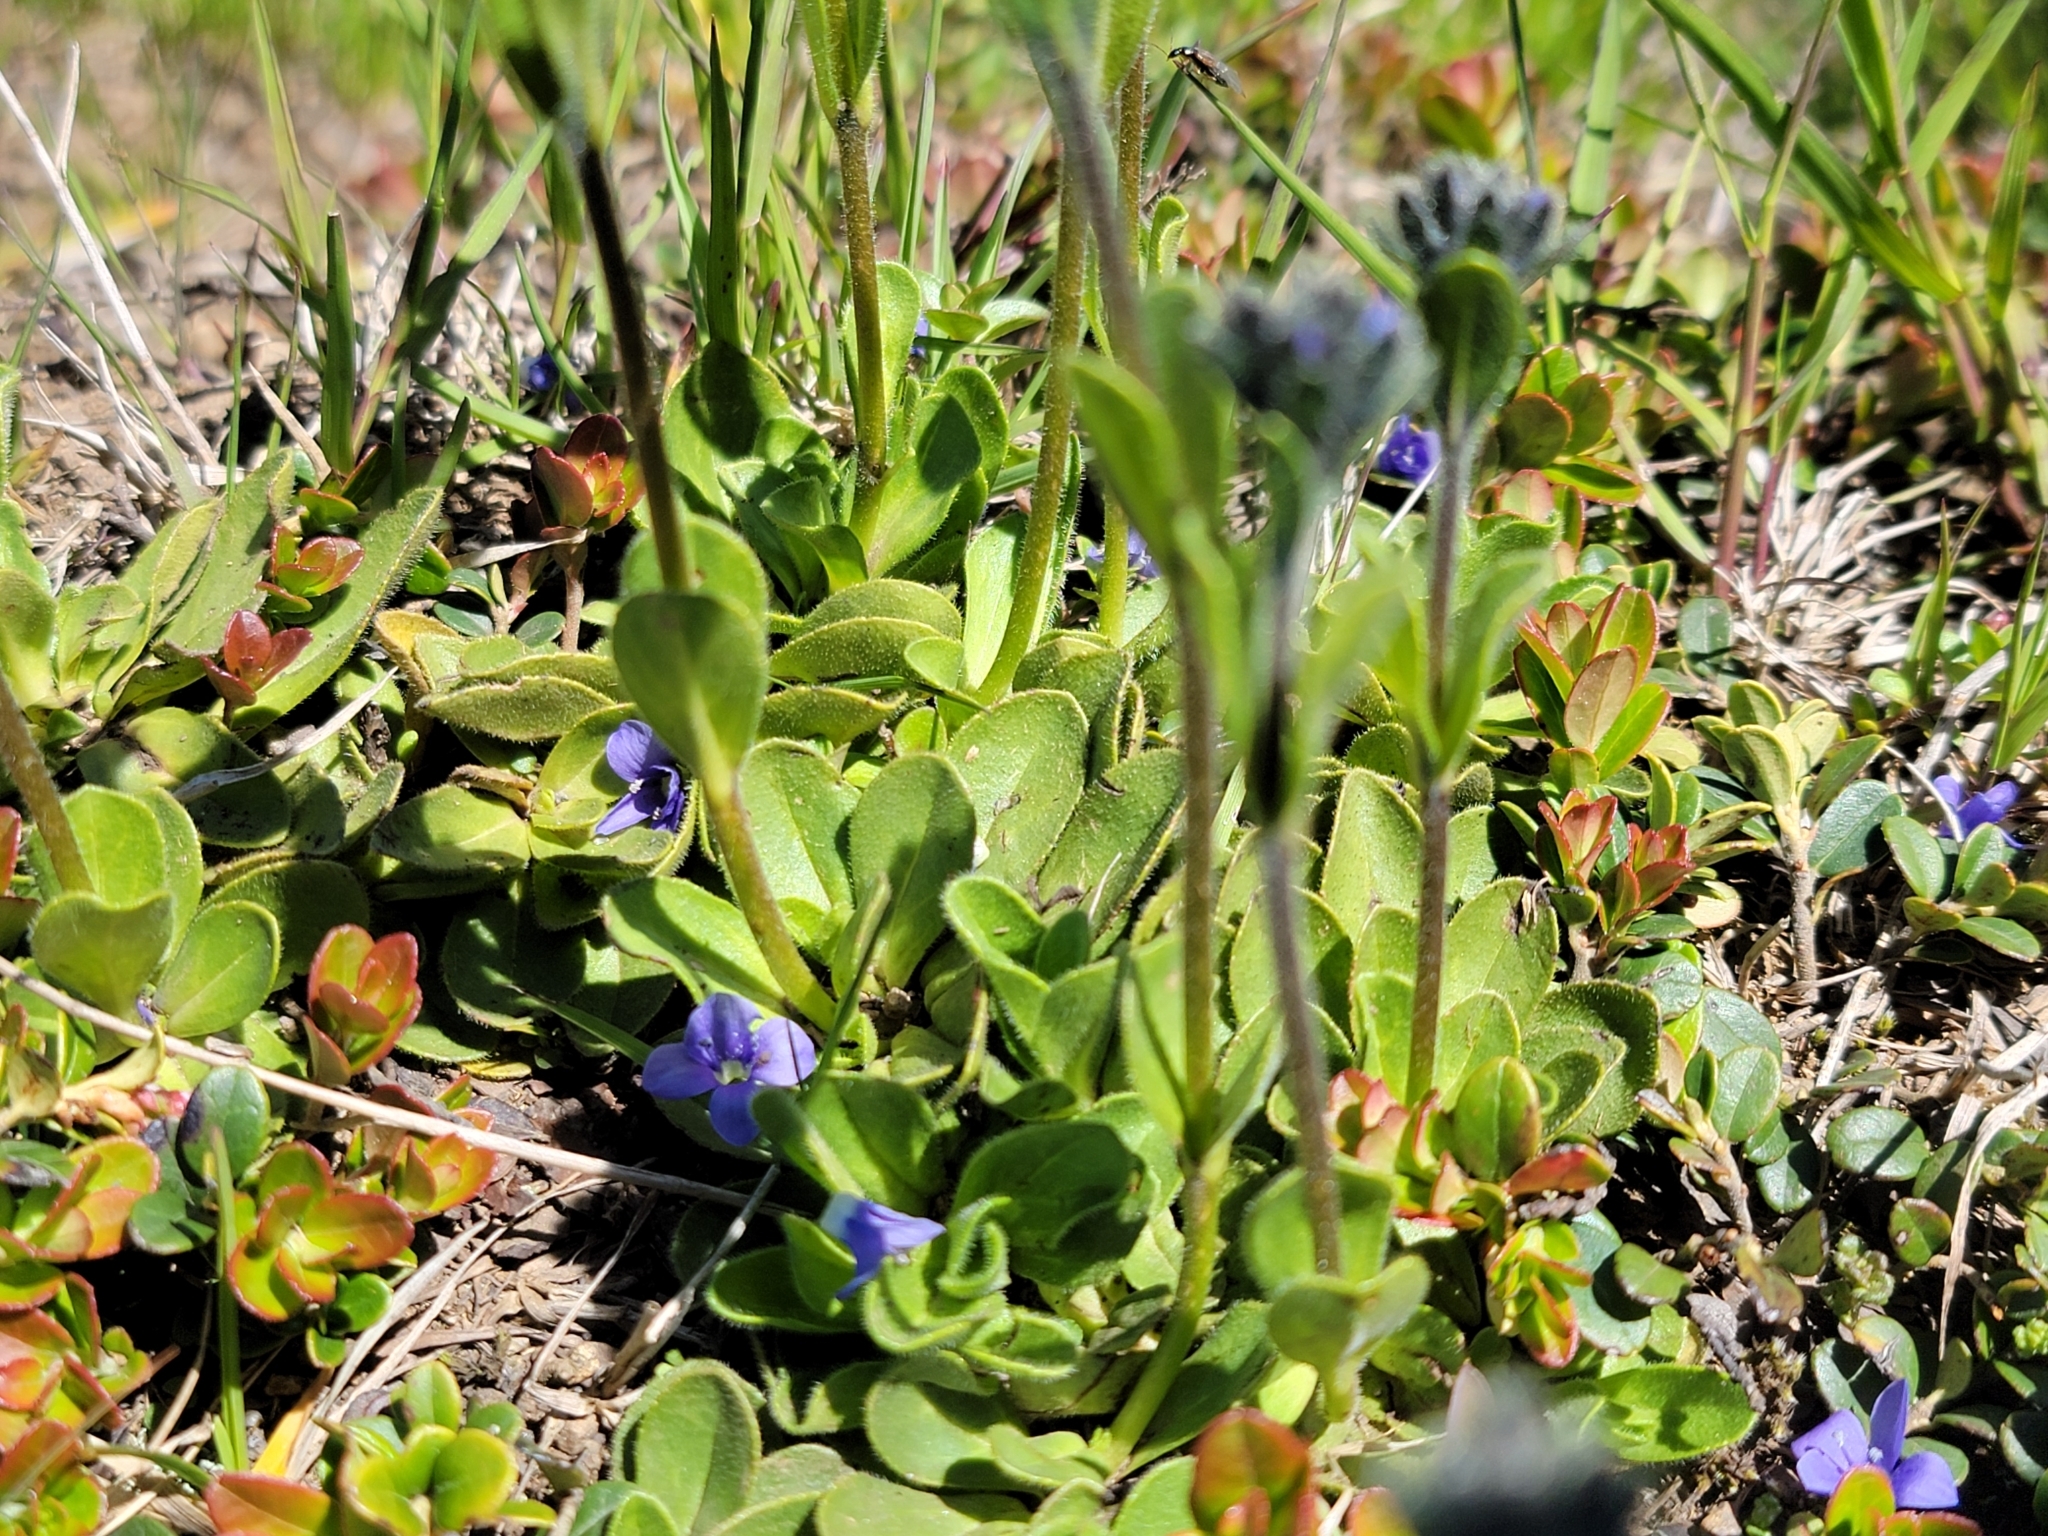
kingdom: Plantae
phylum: Tracheophyta
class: Magnoliopsida
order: Lamiales
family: Plantaginaceae
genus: Veronica
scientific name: Veronica bellidioides
